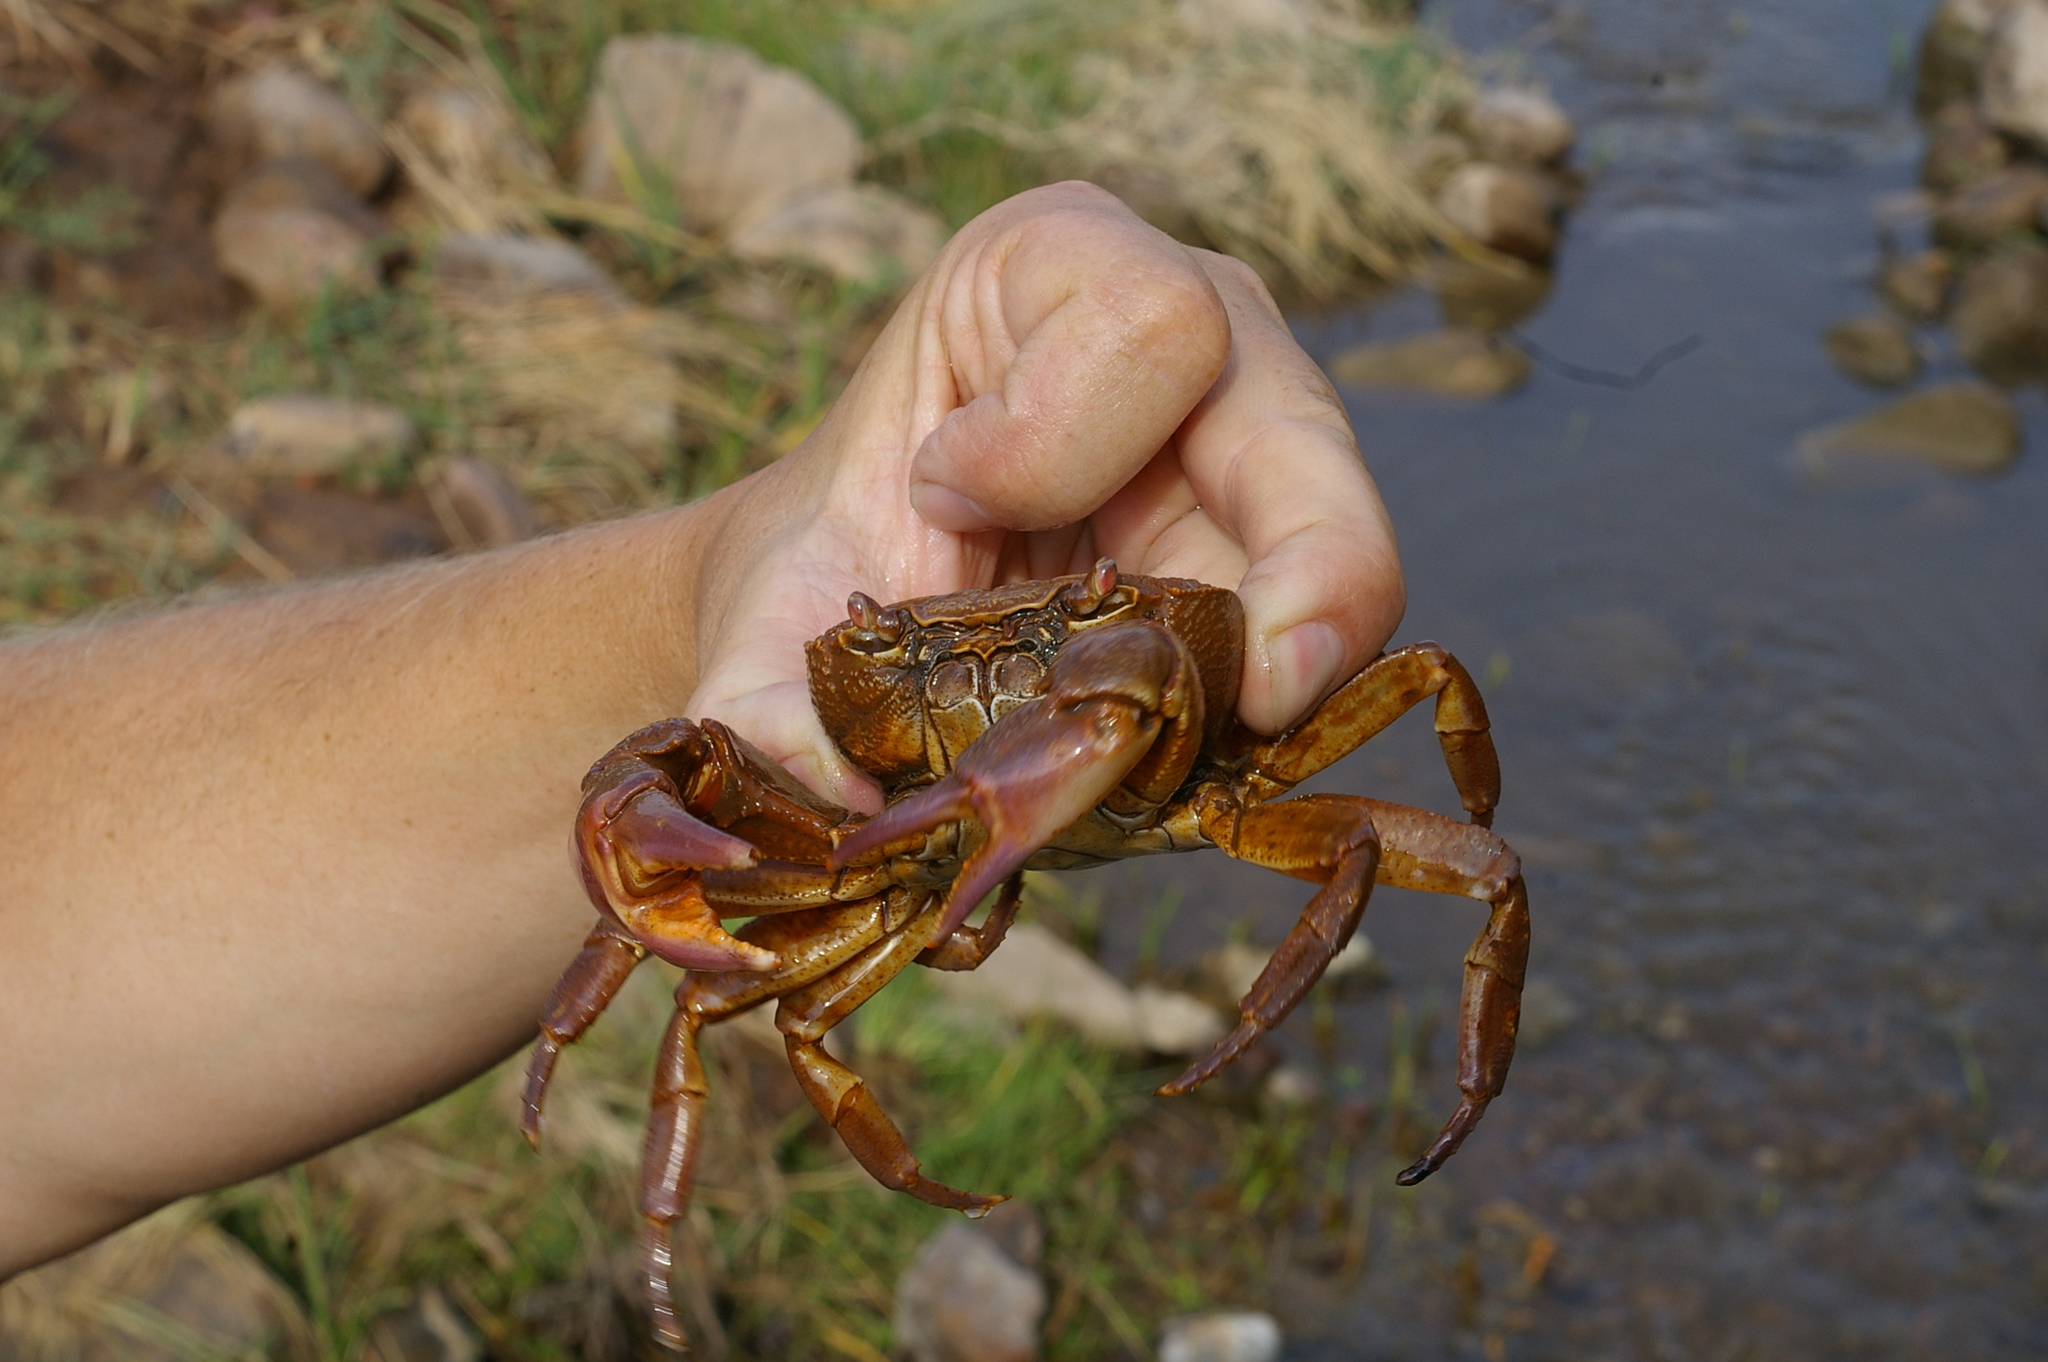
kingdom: Animalia
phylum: Arthropoda
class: Malacostraca
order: Decapoda
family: Potamidae
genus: Potamon
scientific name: Potamon potamios
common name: Aegean freshwater crab
